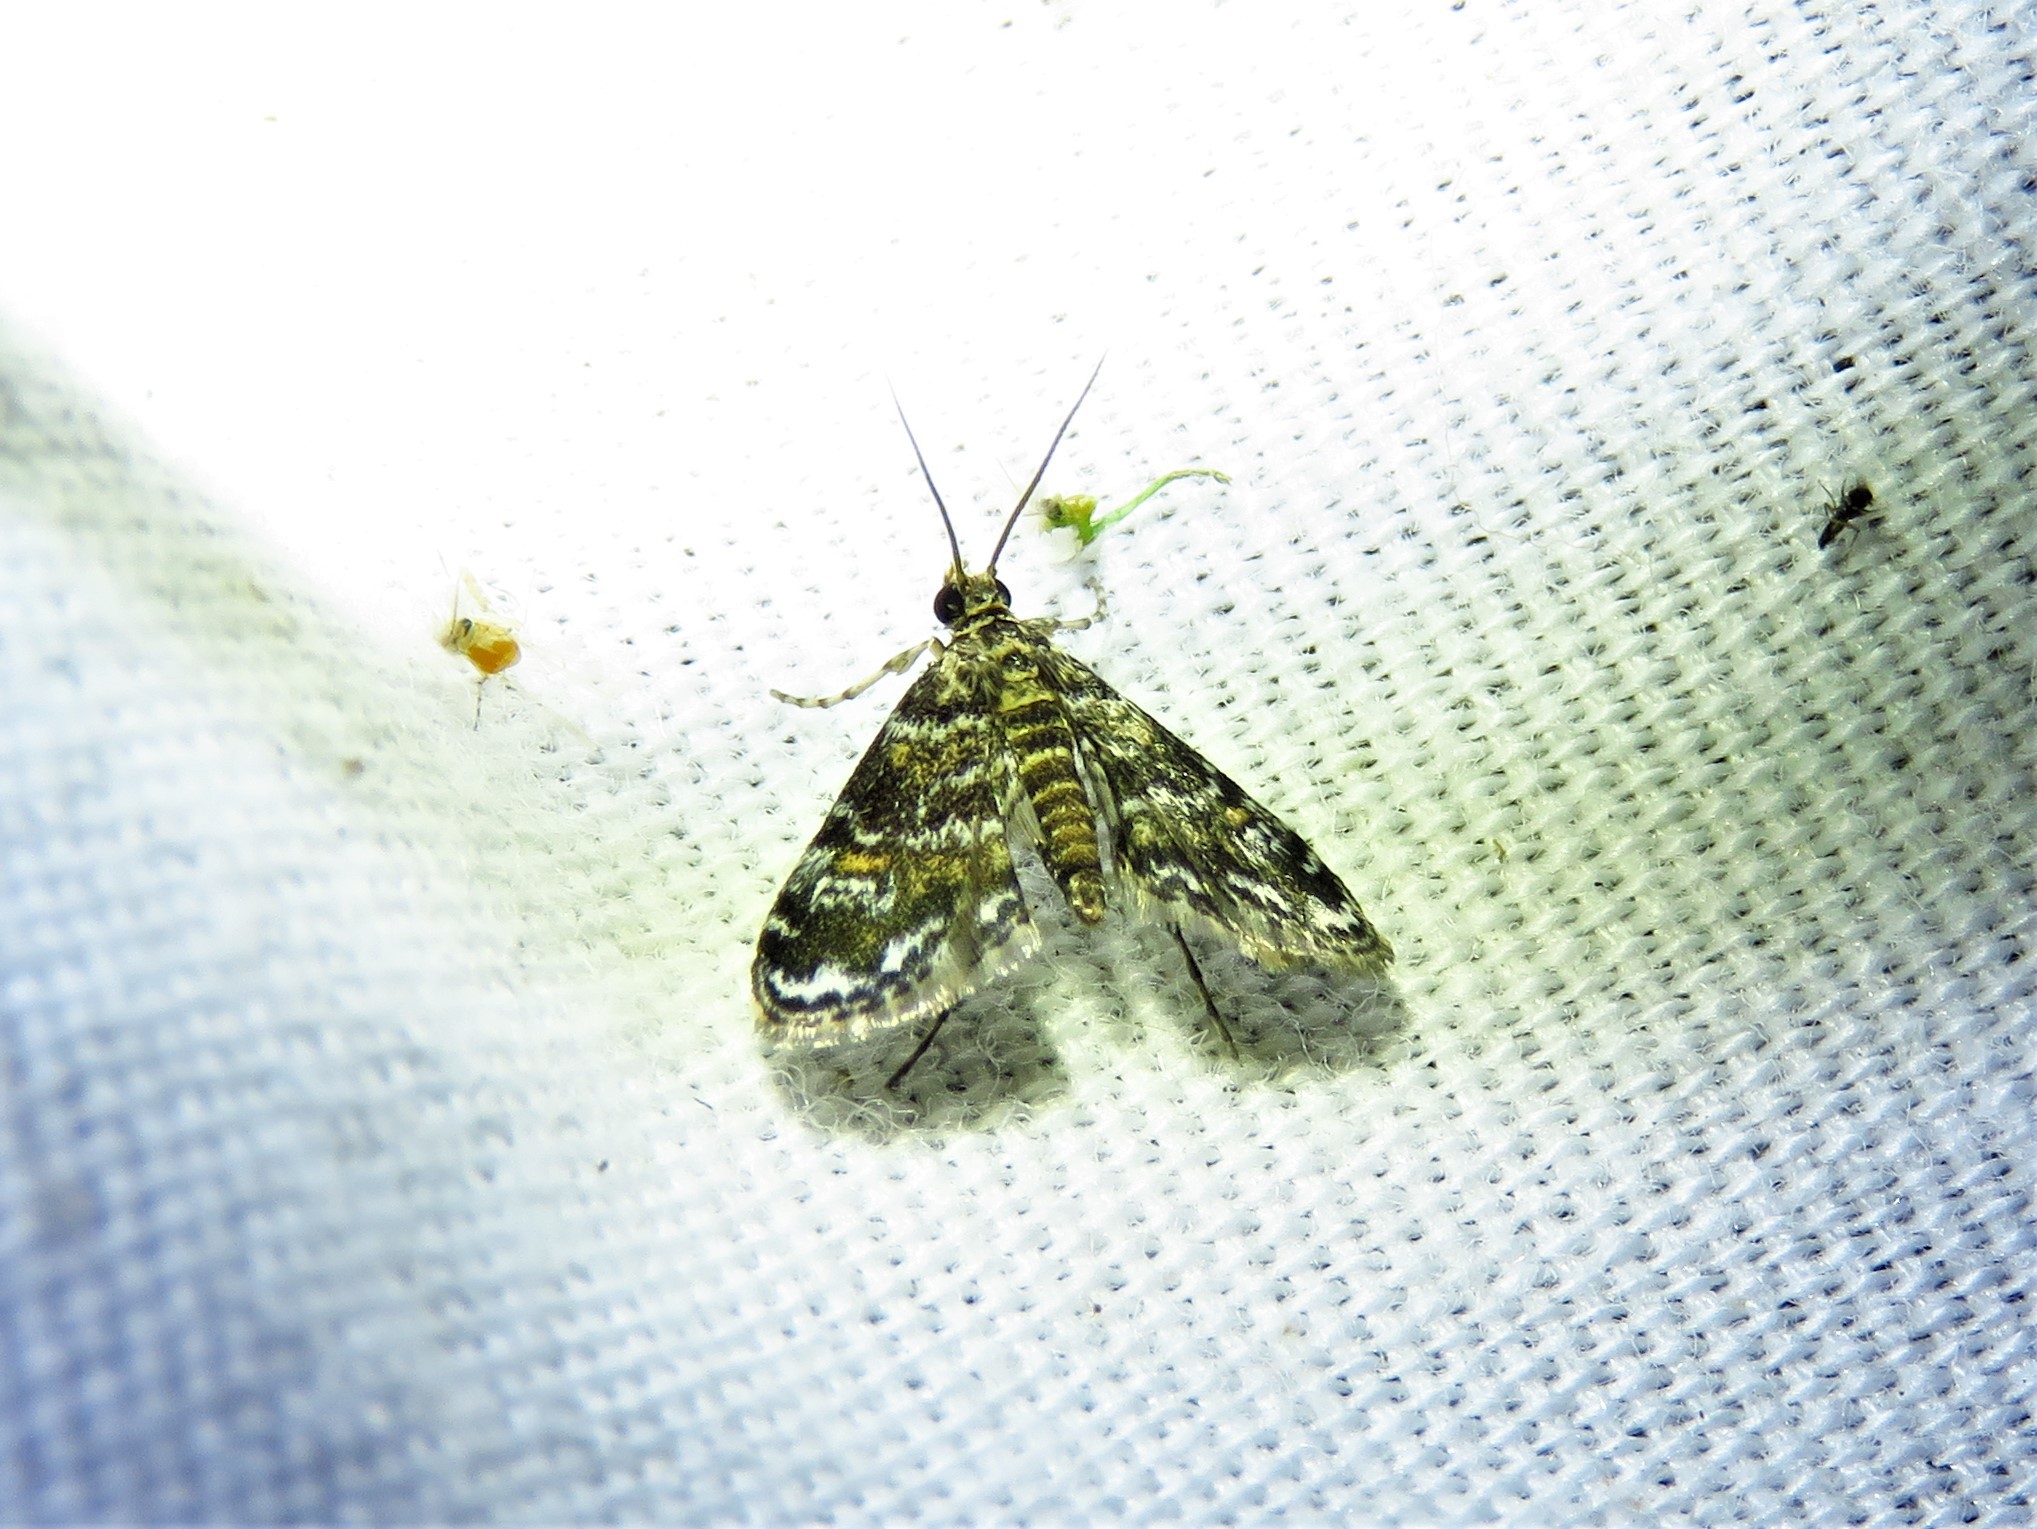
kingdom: Animalia
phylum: Arthropoda
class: Insecta
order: Lepidoptera
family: Crambidae
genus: Elophila
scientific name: Elophila obliteralis
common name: Waterlily leafcutter moth
